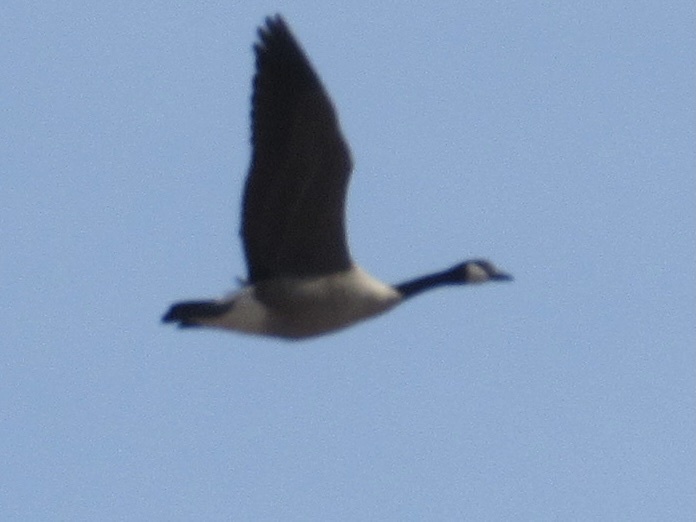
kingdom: Animalia
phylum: Chordata
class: Aves
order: Anseriformes
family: Anatidae
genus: Branta
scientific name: Branta canadensis
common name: Canada goose
